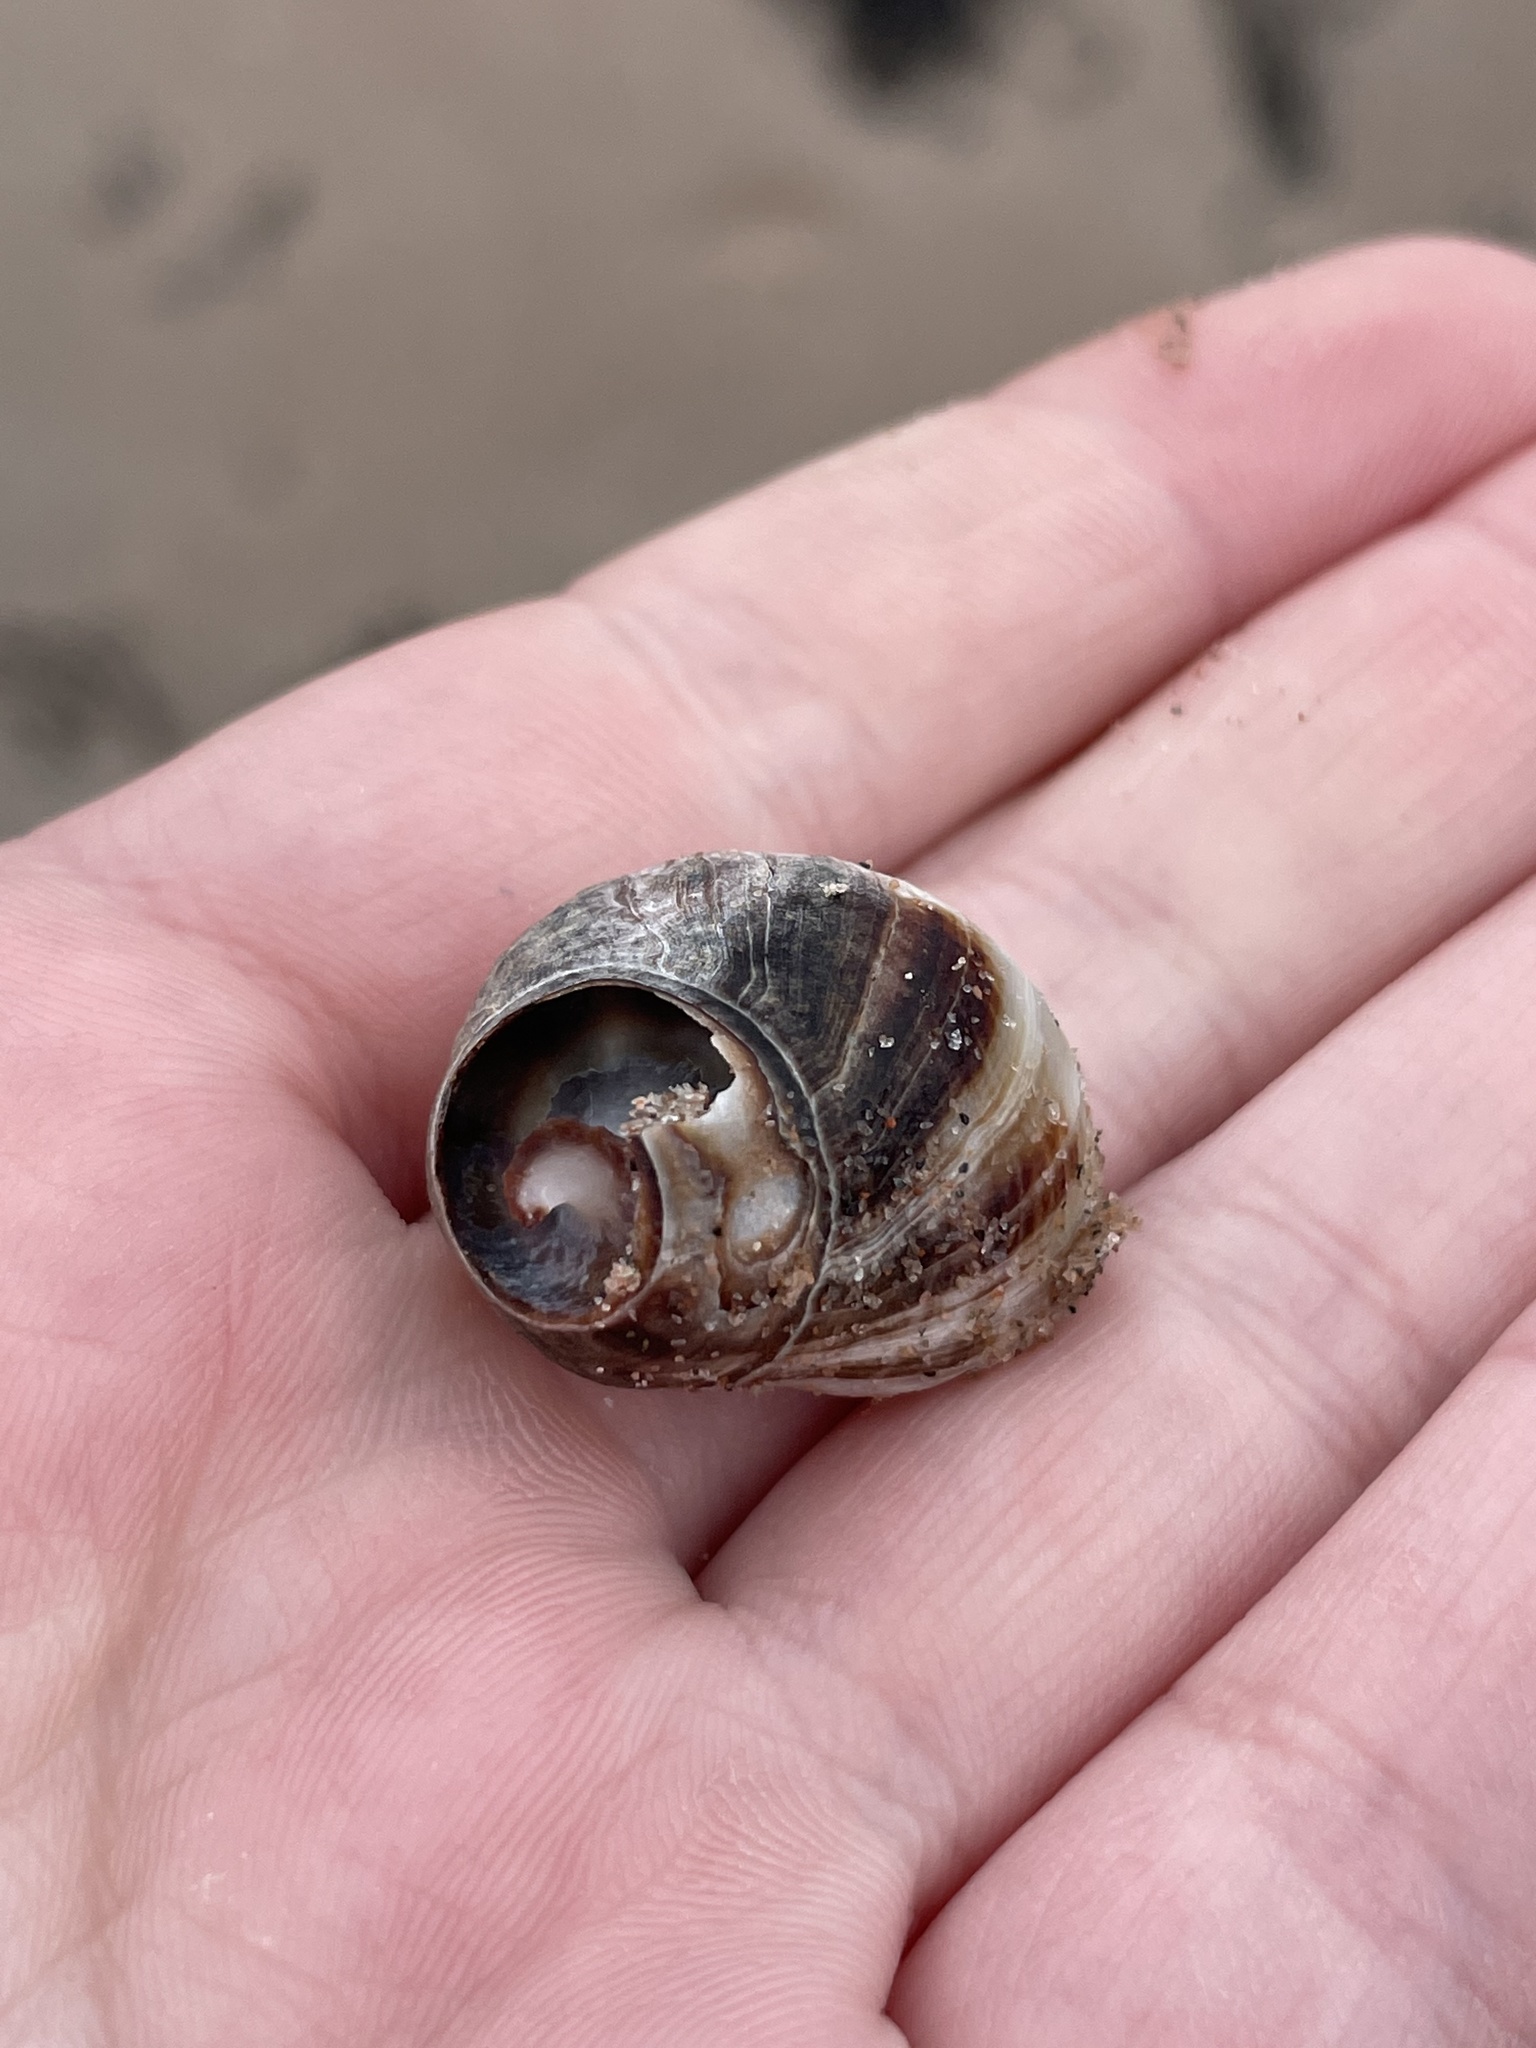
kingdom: Animalia
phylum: Mollusca
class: Gastropoda
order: Littorinimorpha
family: Littorinidae
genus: Littorina
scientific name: Littorina littorea
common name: Common periwinkle
